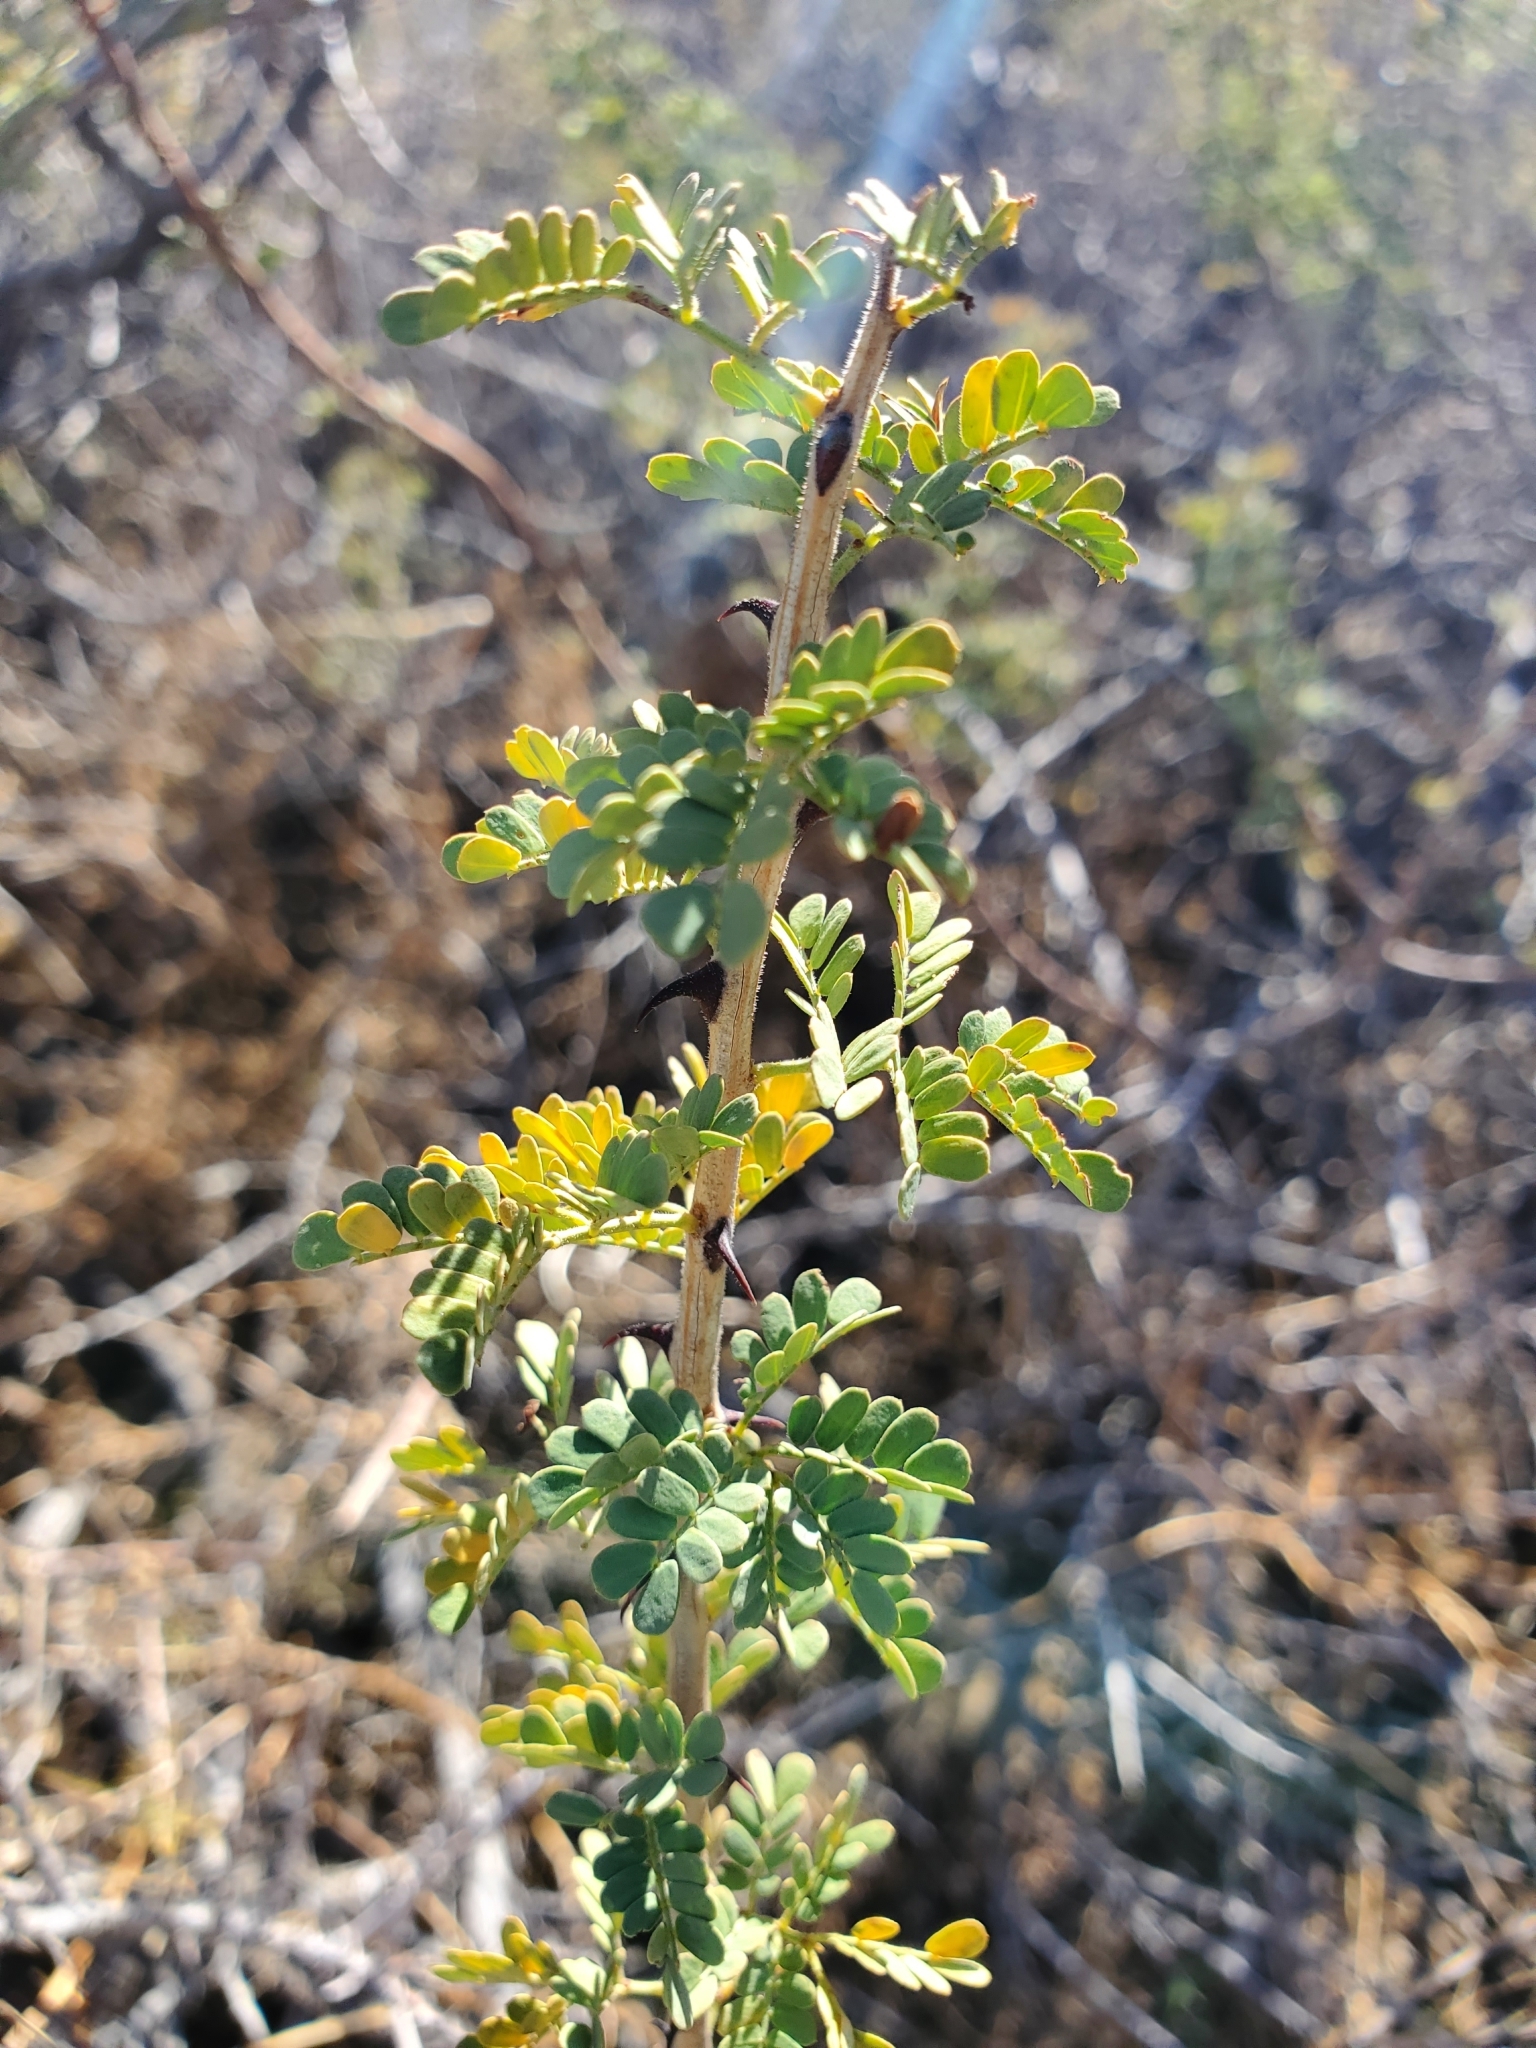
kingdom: Plantae
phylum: Tracheophyta
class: Magnoliopsida
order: Fabales
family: Fabaceae
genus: Senegalia
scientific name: Senegalia greggii
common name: Texas-mimosa
